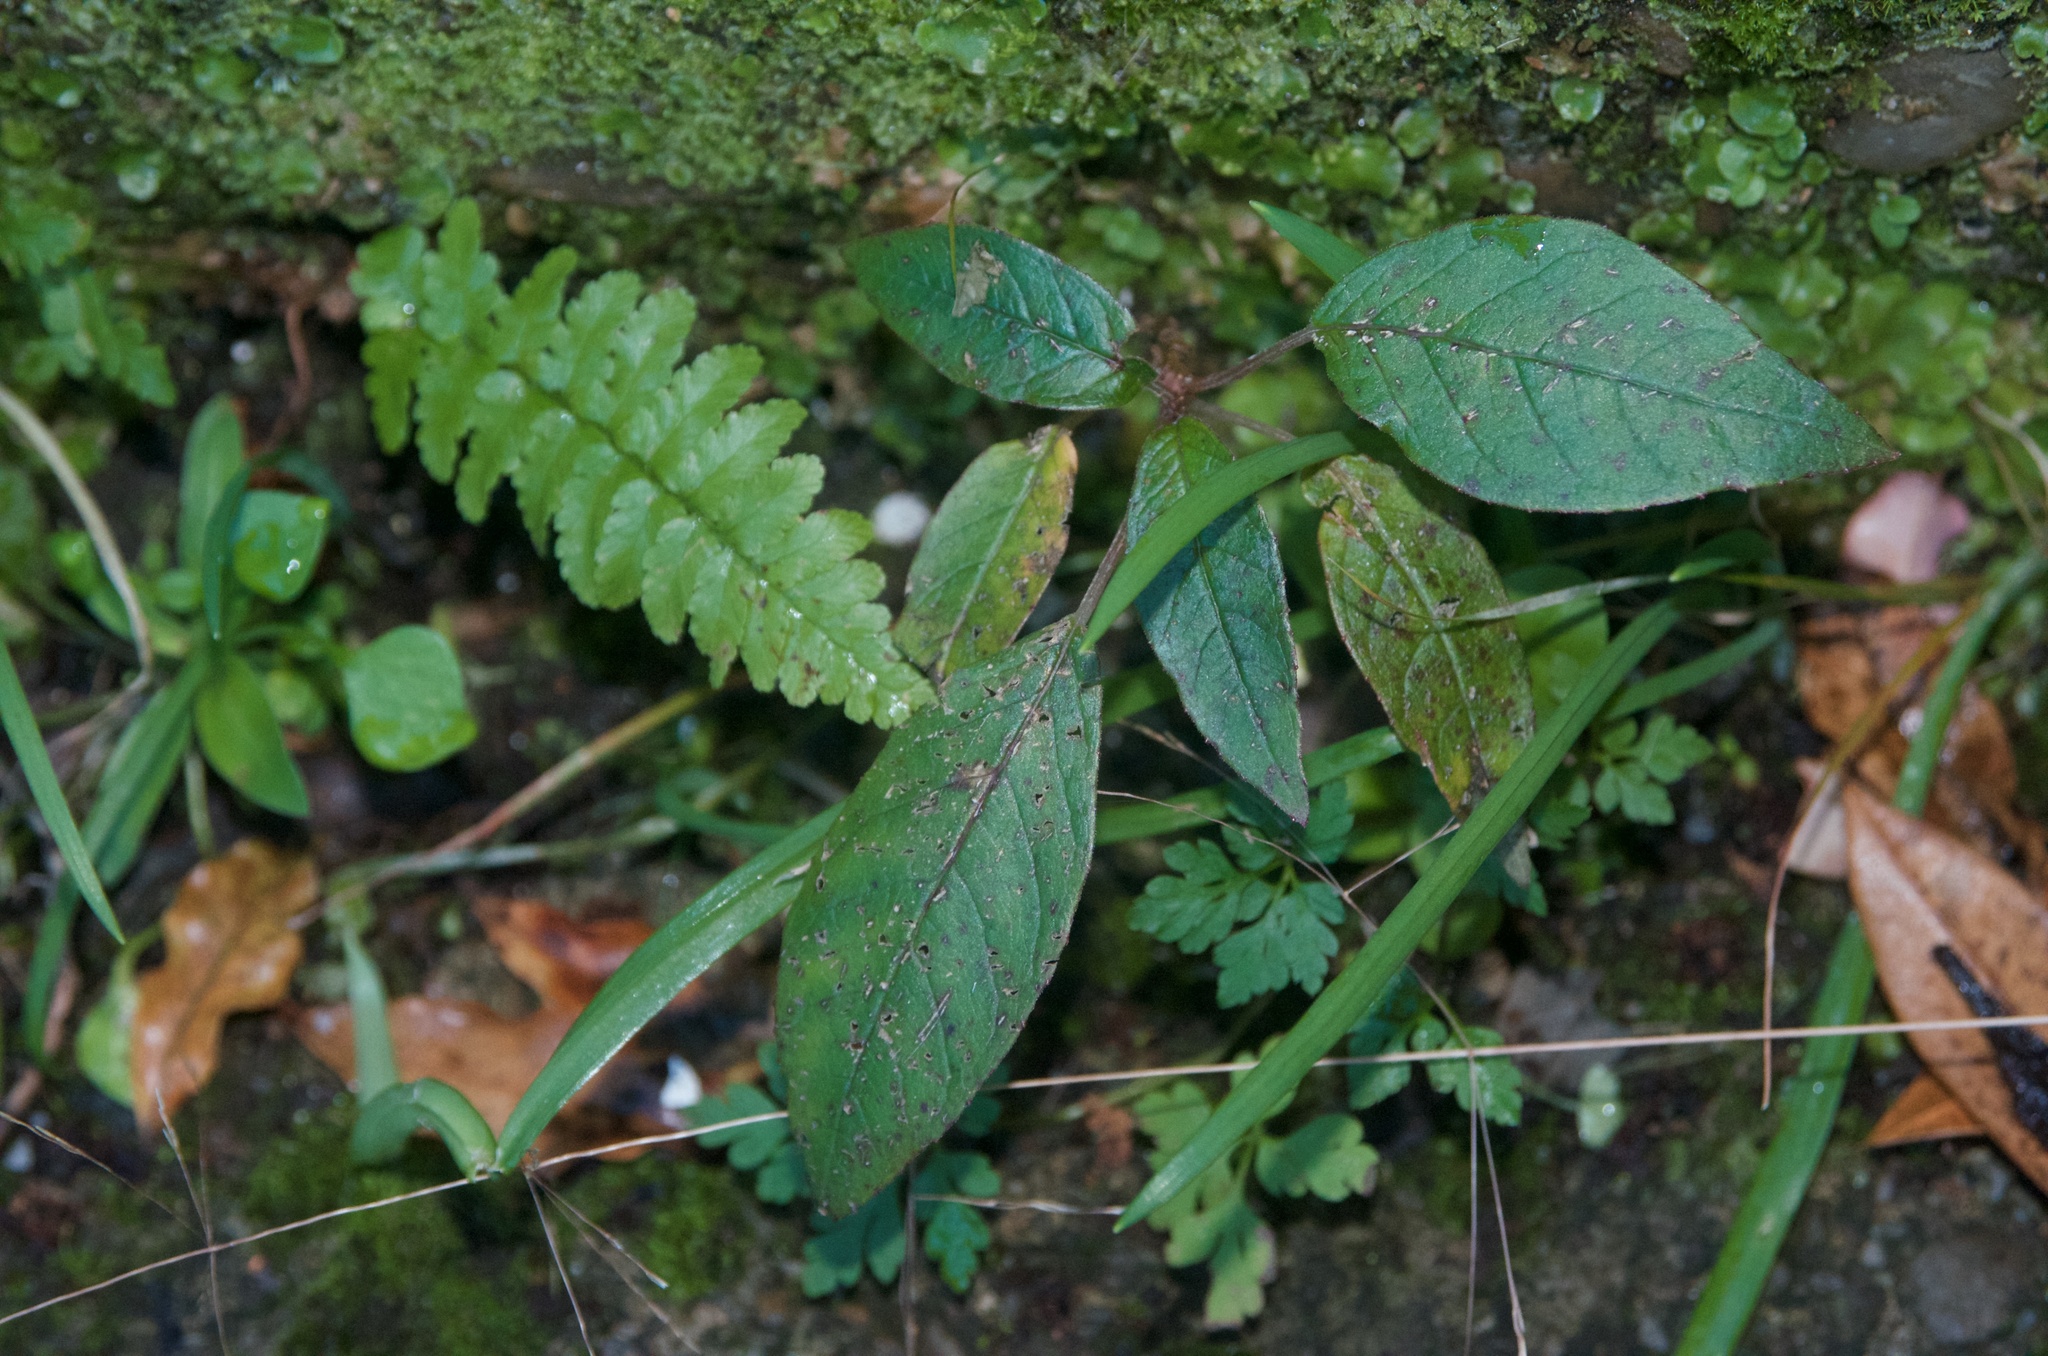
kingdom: Plantae
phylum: Tracheophyta
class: Magnoliopsida
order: Myrtales
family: Onagraceae
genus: Fuchsia
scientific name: Fuchsia excorticata
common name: Tree fuchsia
